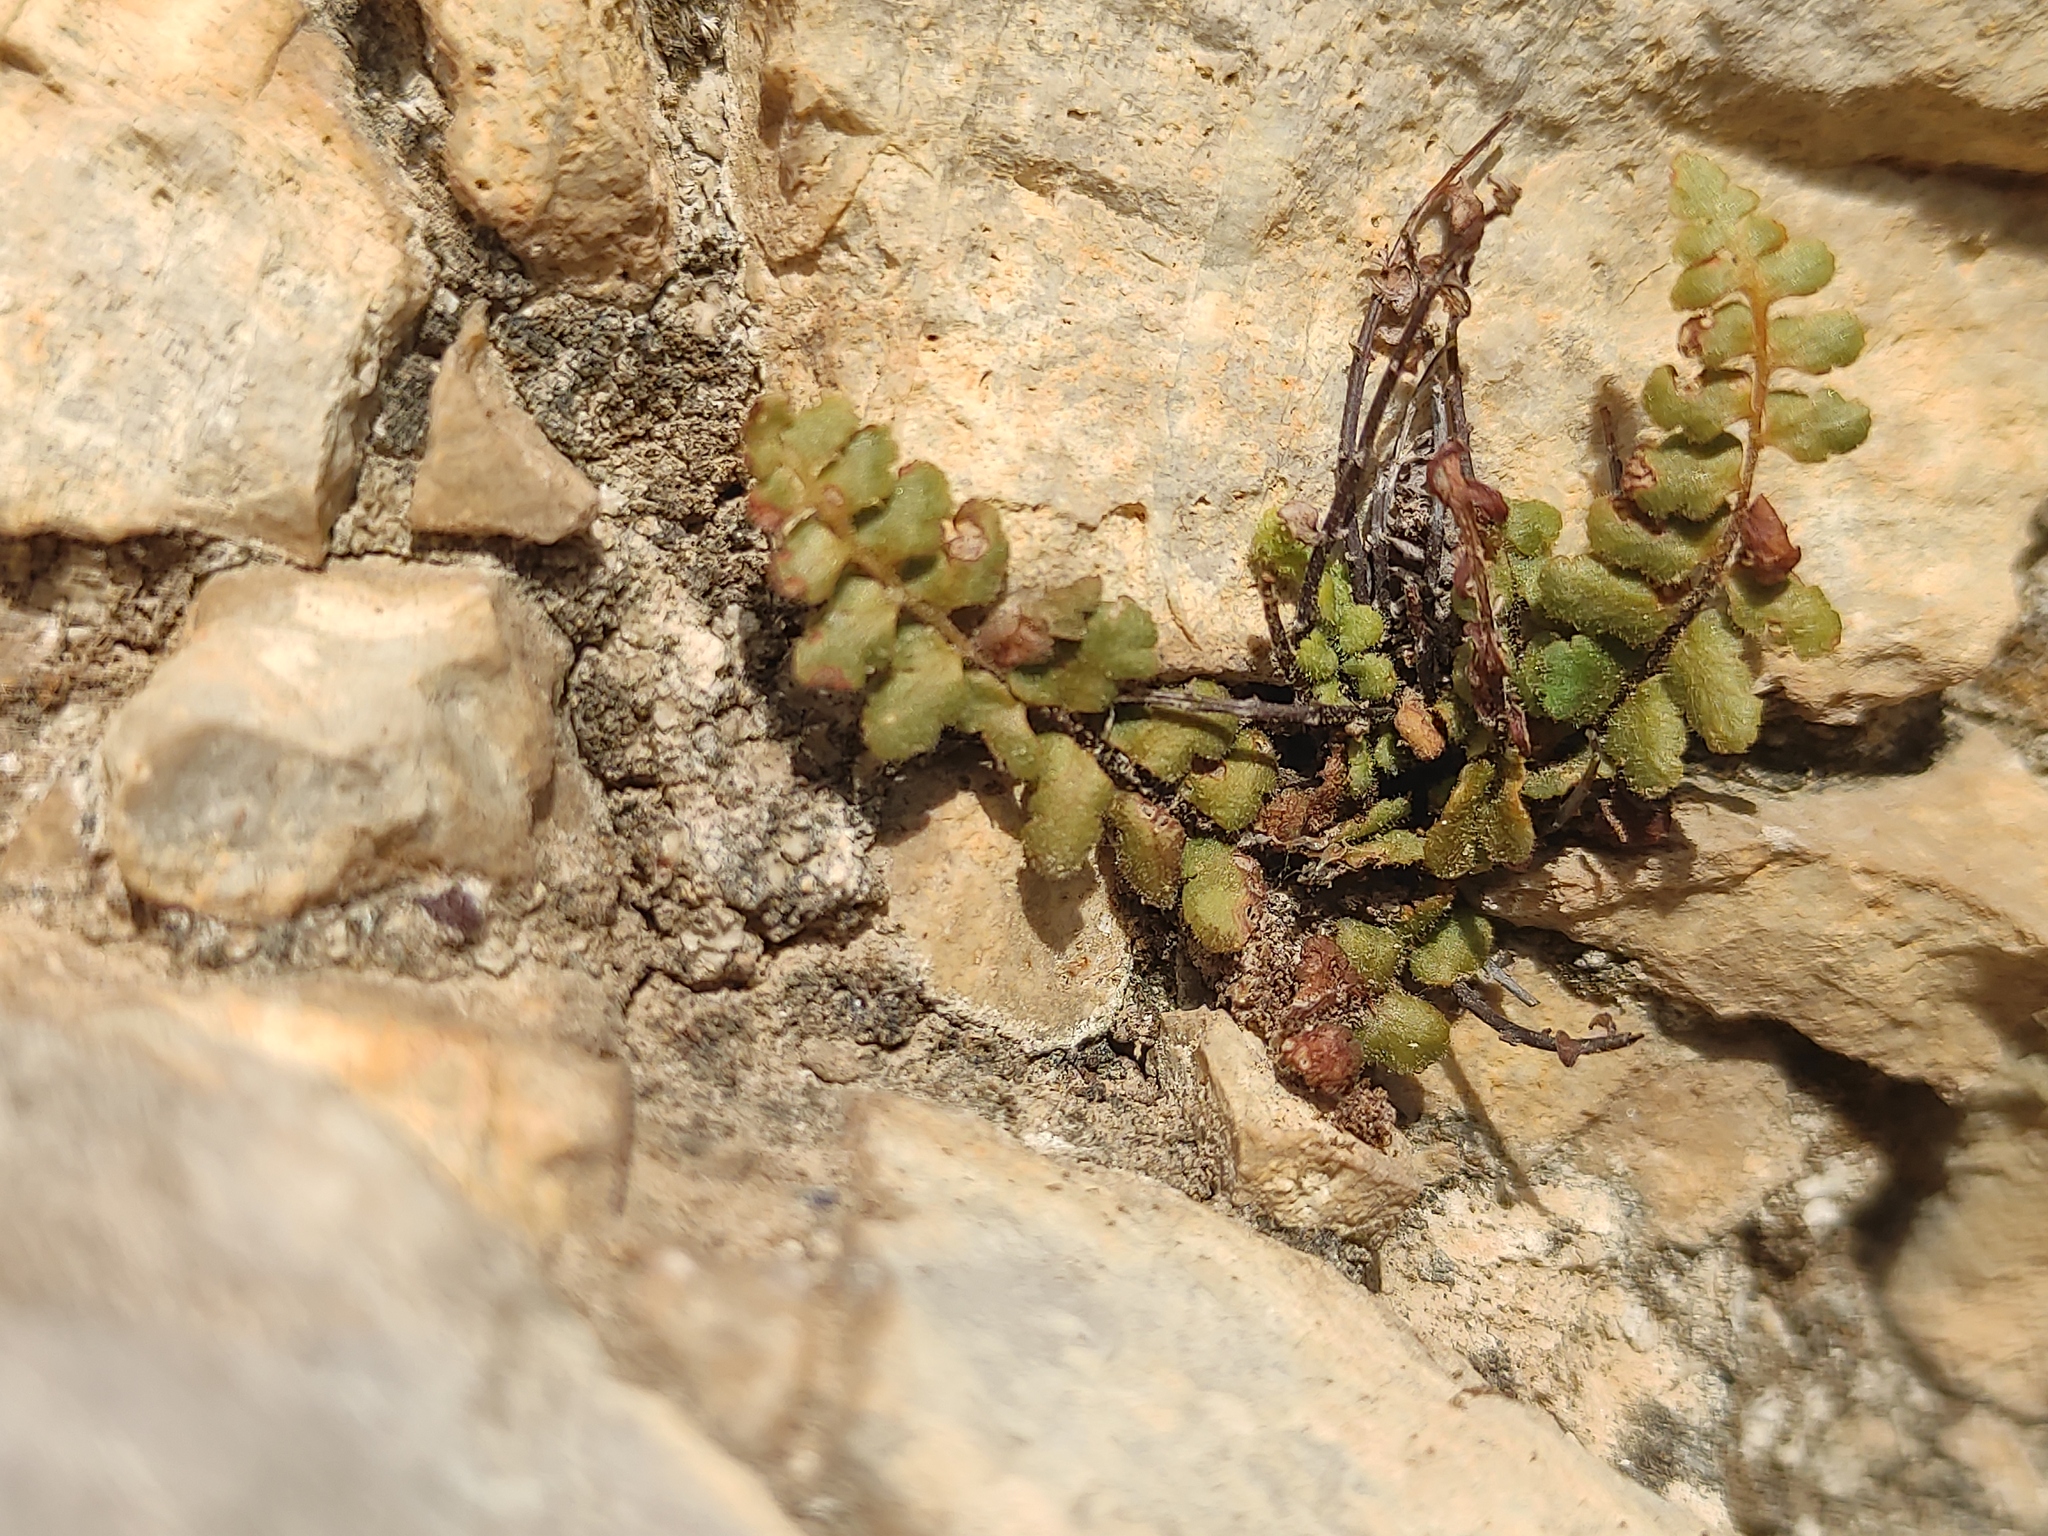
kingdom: Plantae
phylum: Tracheophyta
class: Polypodiopsida
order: Polypodiales
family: Aspleniaceae
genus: Asplenium
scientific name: Asplenium petrarchae
